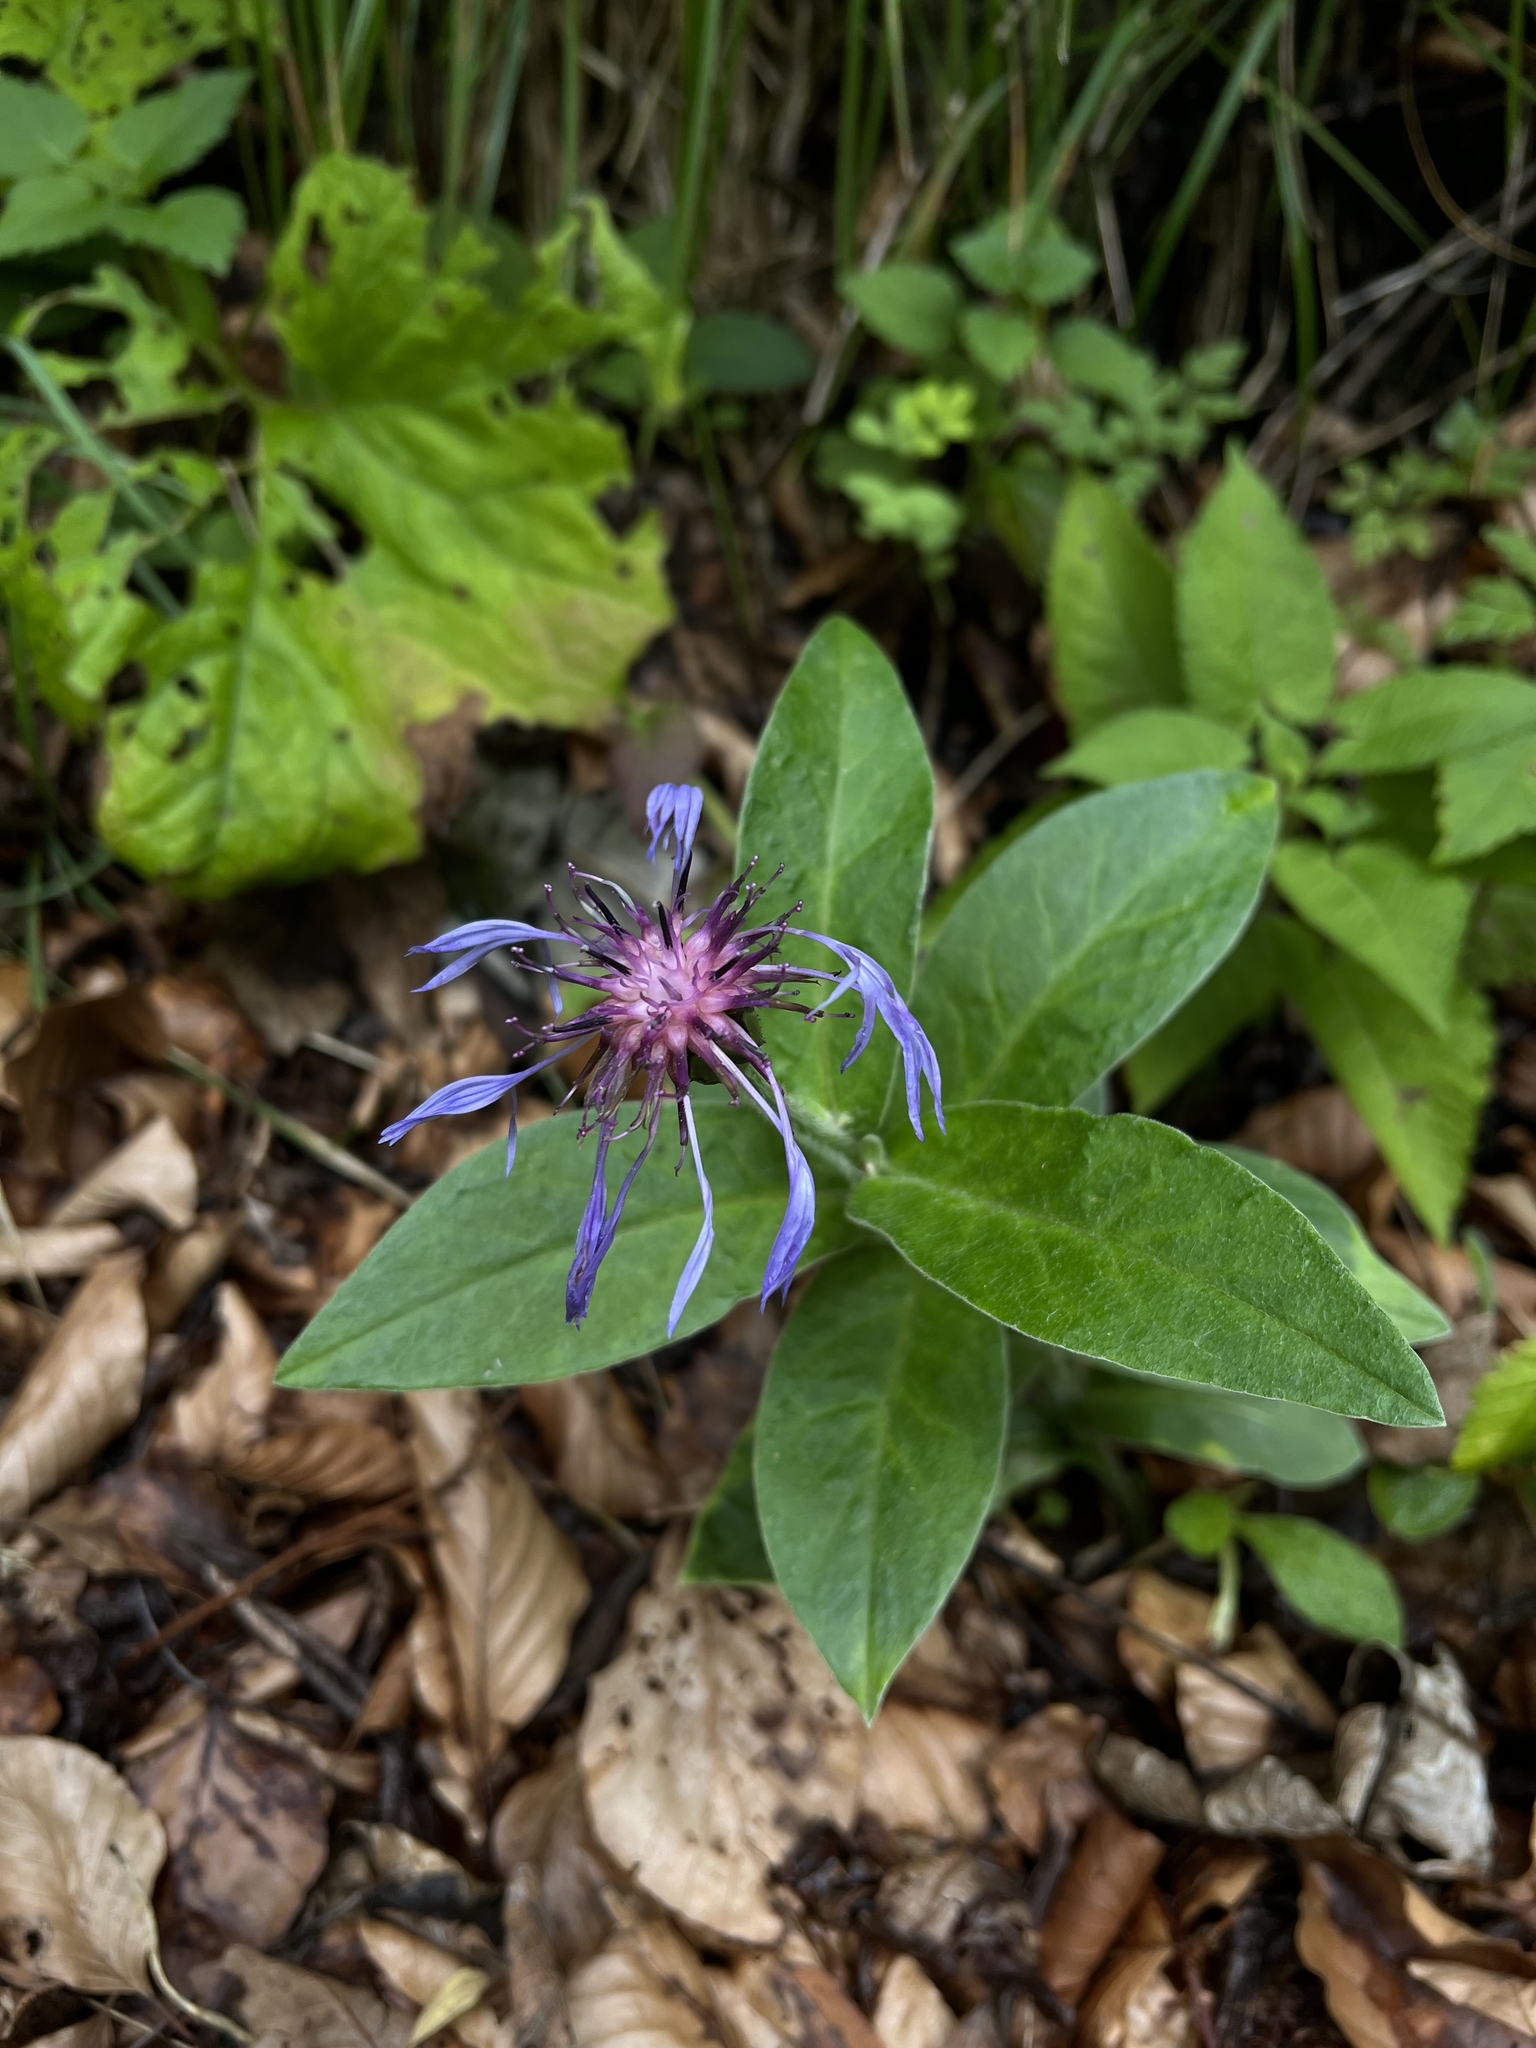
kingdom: Plantae
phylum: Tracheophyta
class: Magnoliopsida
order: Asterales
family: Asteraceae
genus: Centaurea
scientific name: Centaurea montana
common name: Perennial cornflower
